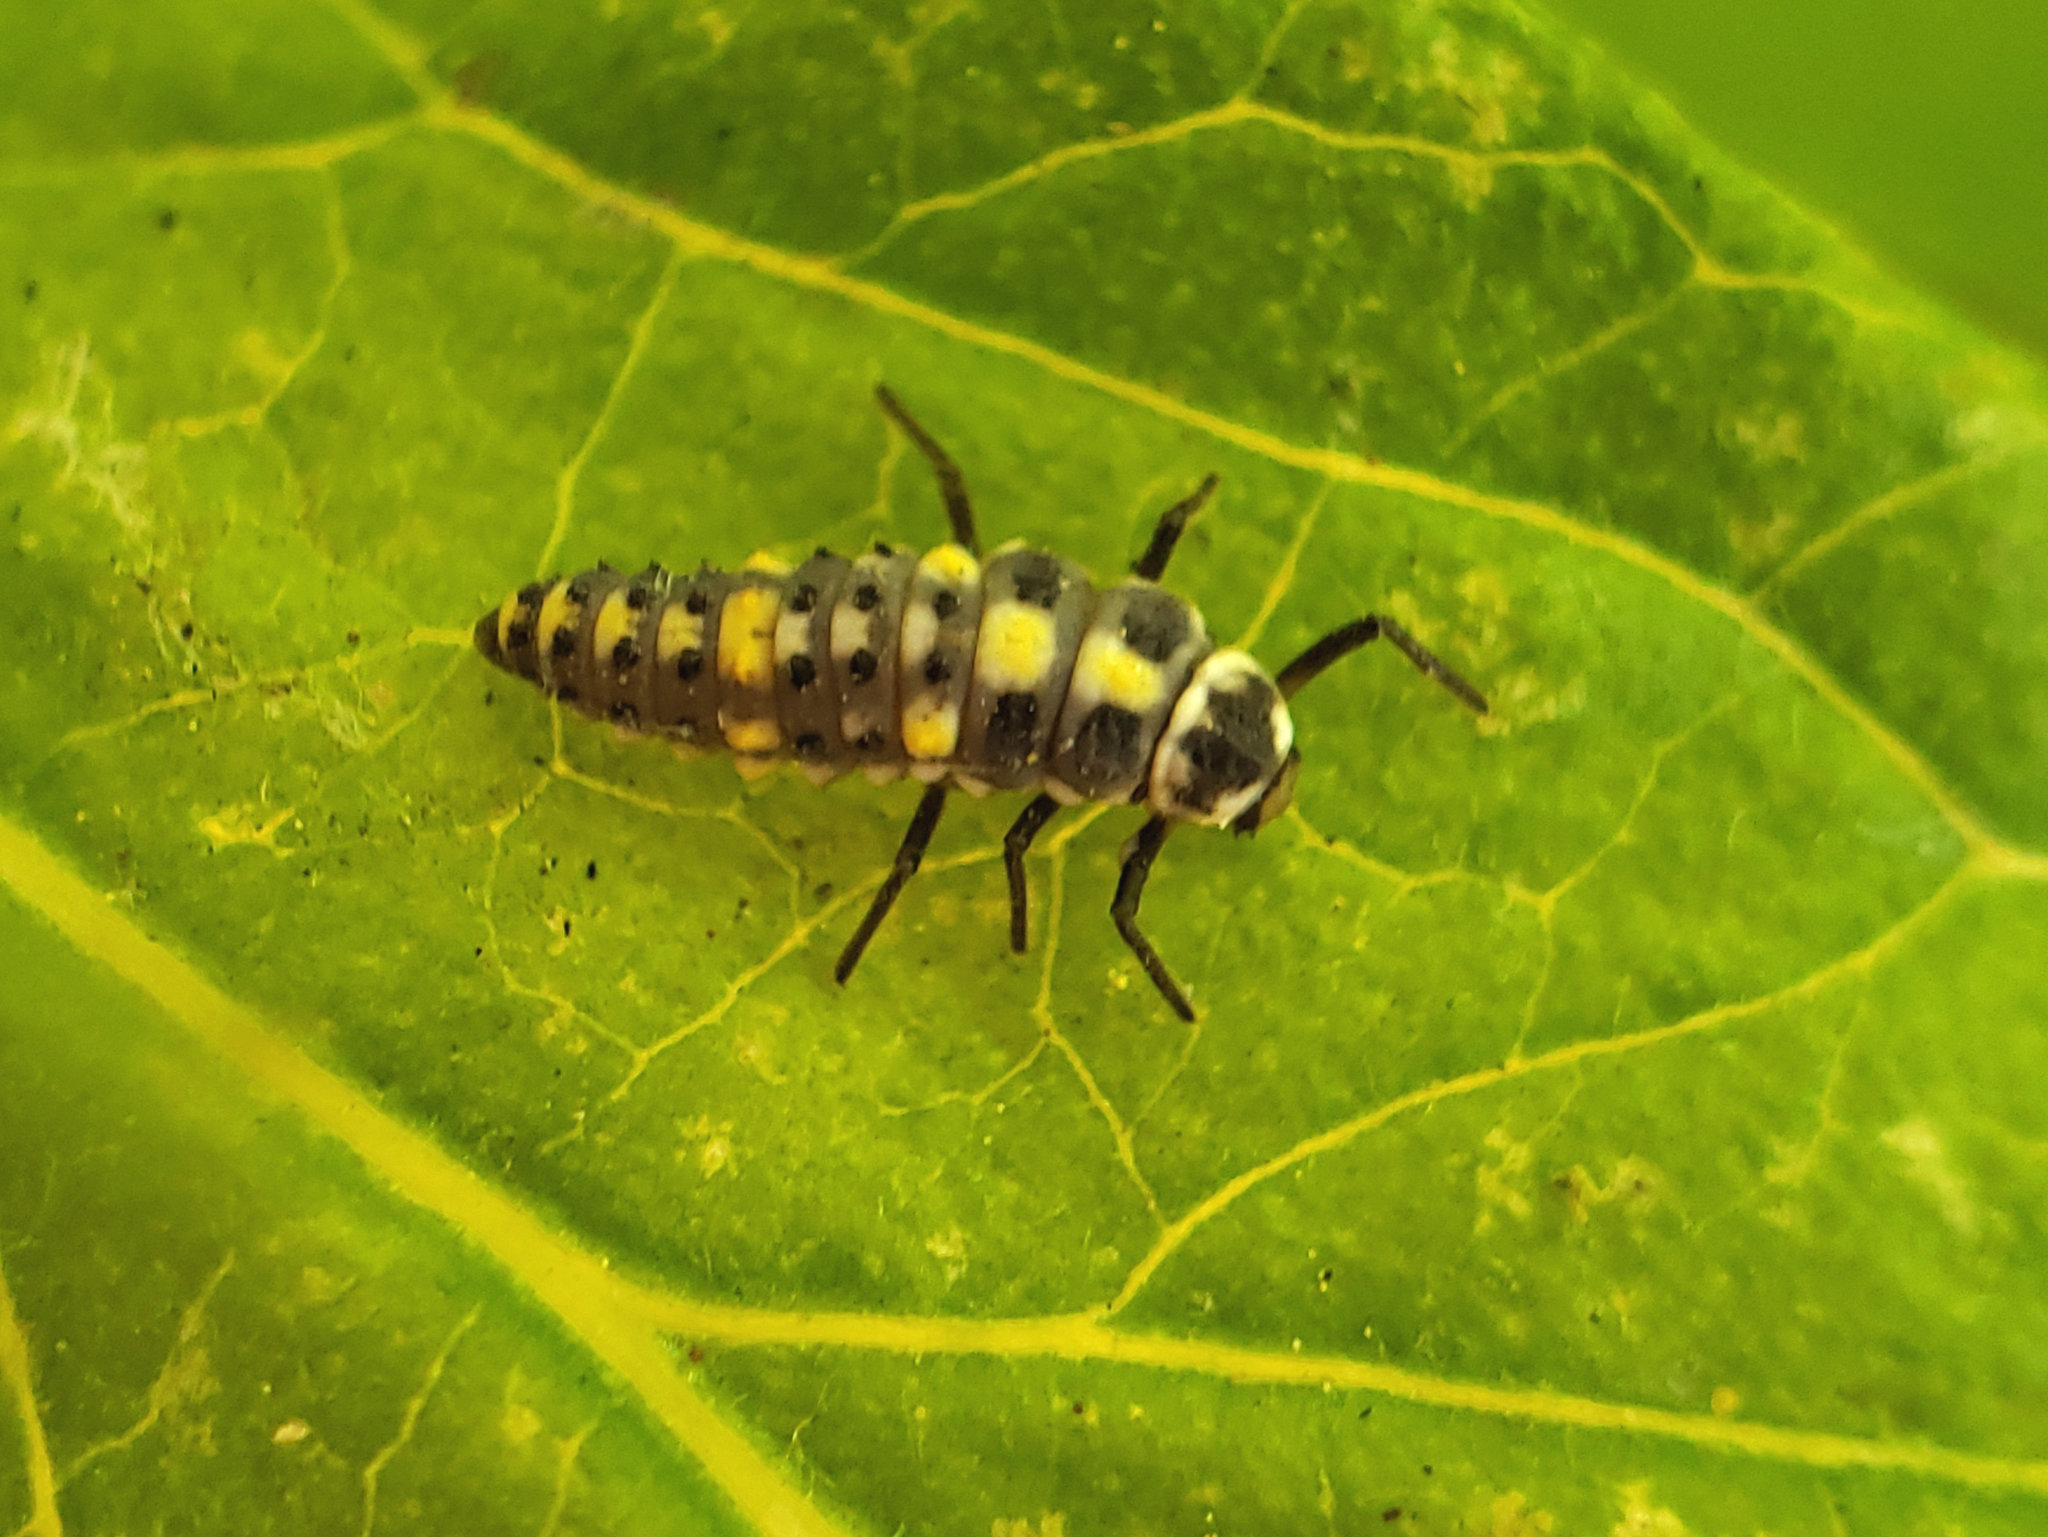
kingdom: Animalia
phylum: Arthropoda
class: Insecta
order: Coleoptera
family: Coccinellidae
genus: Olla
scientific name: Olla v-nigrum
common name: Ashy gray lady beetle
